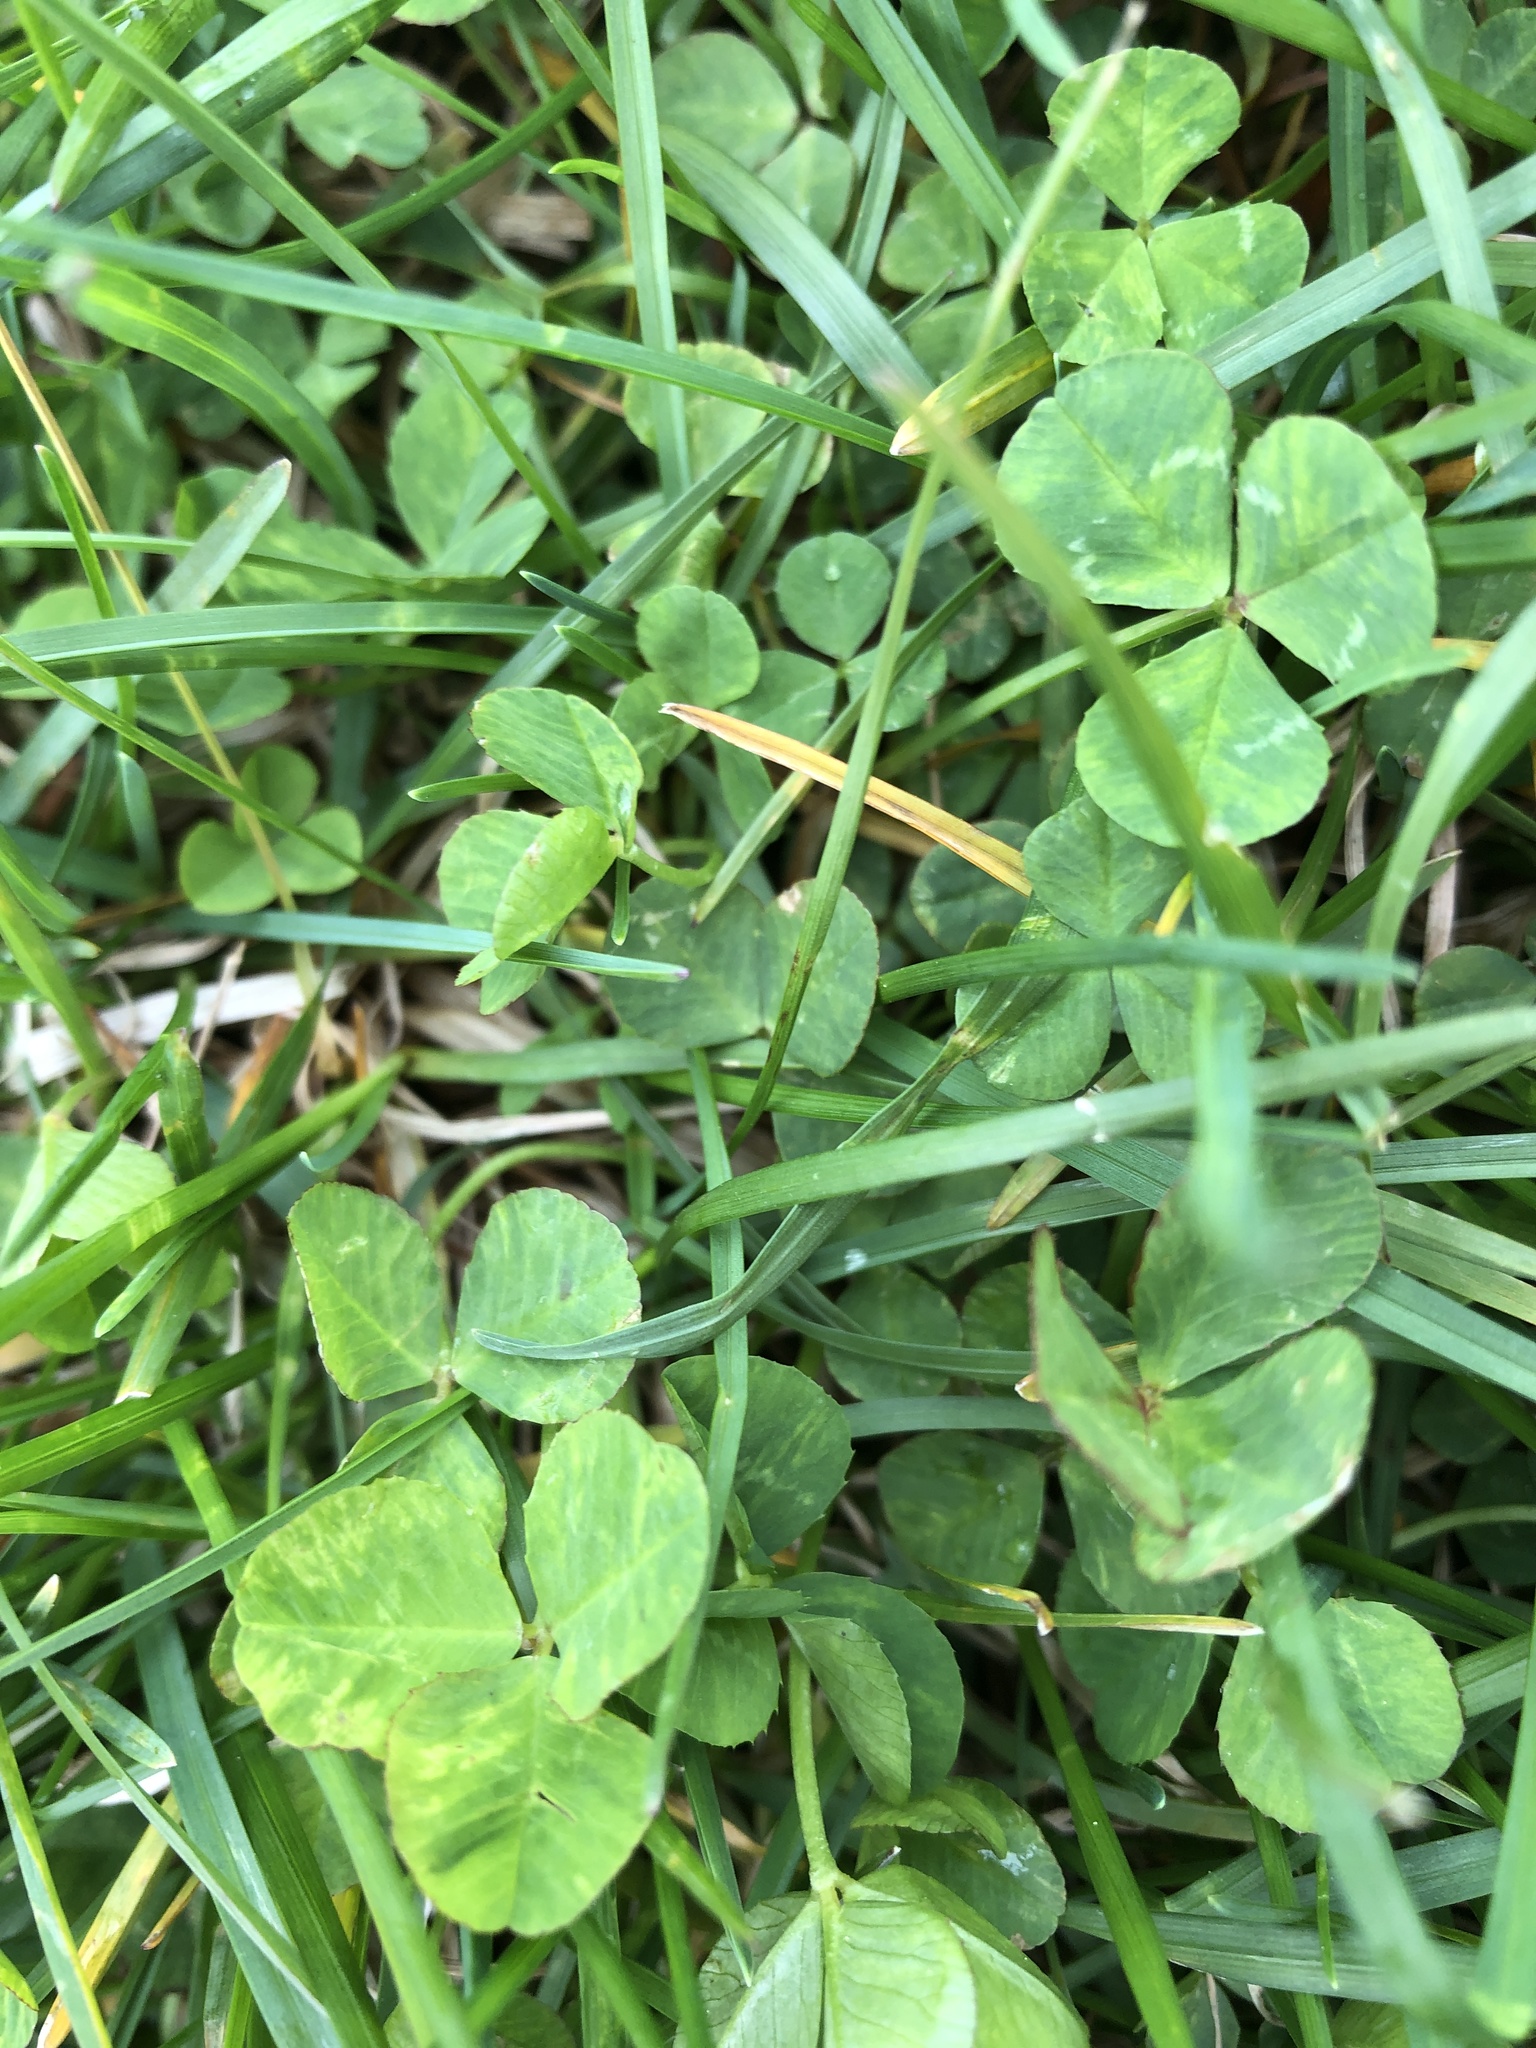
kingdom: Plantae
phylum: Tracheophyta
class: Magnoliopsida
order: Fabales
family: Fabaceae
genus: Trifolium
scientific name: Trifolium repens
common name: White clover
